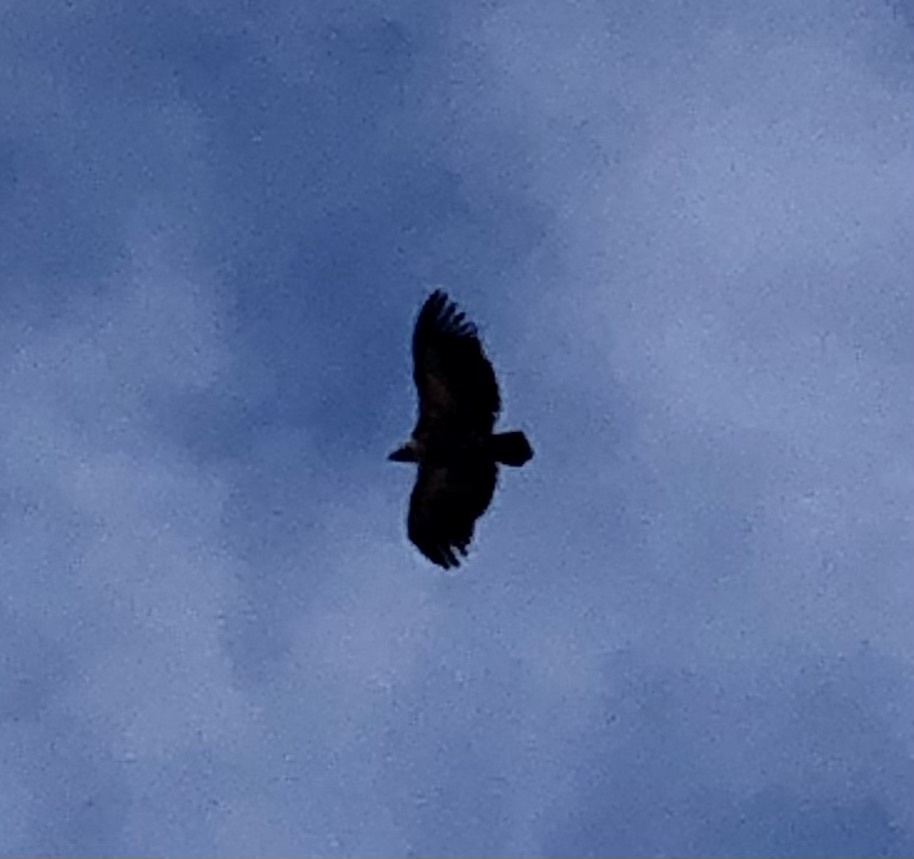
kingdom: Animalia
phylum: Chordata
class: Aves
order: Accipitriformes
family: Accipitridae
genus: Gyps
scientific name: Gyps fulvus
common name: Griffon vulture
